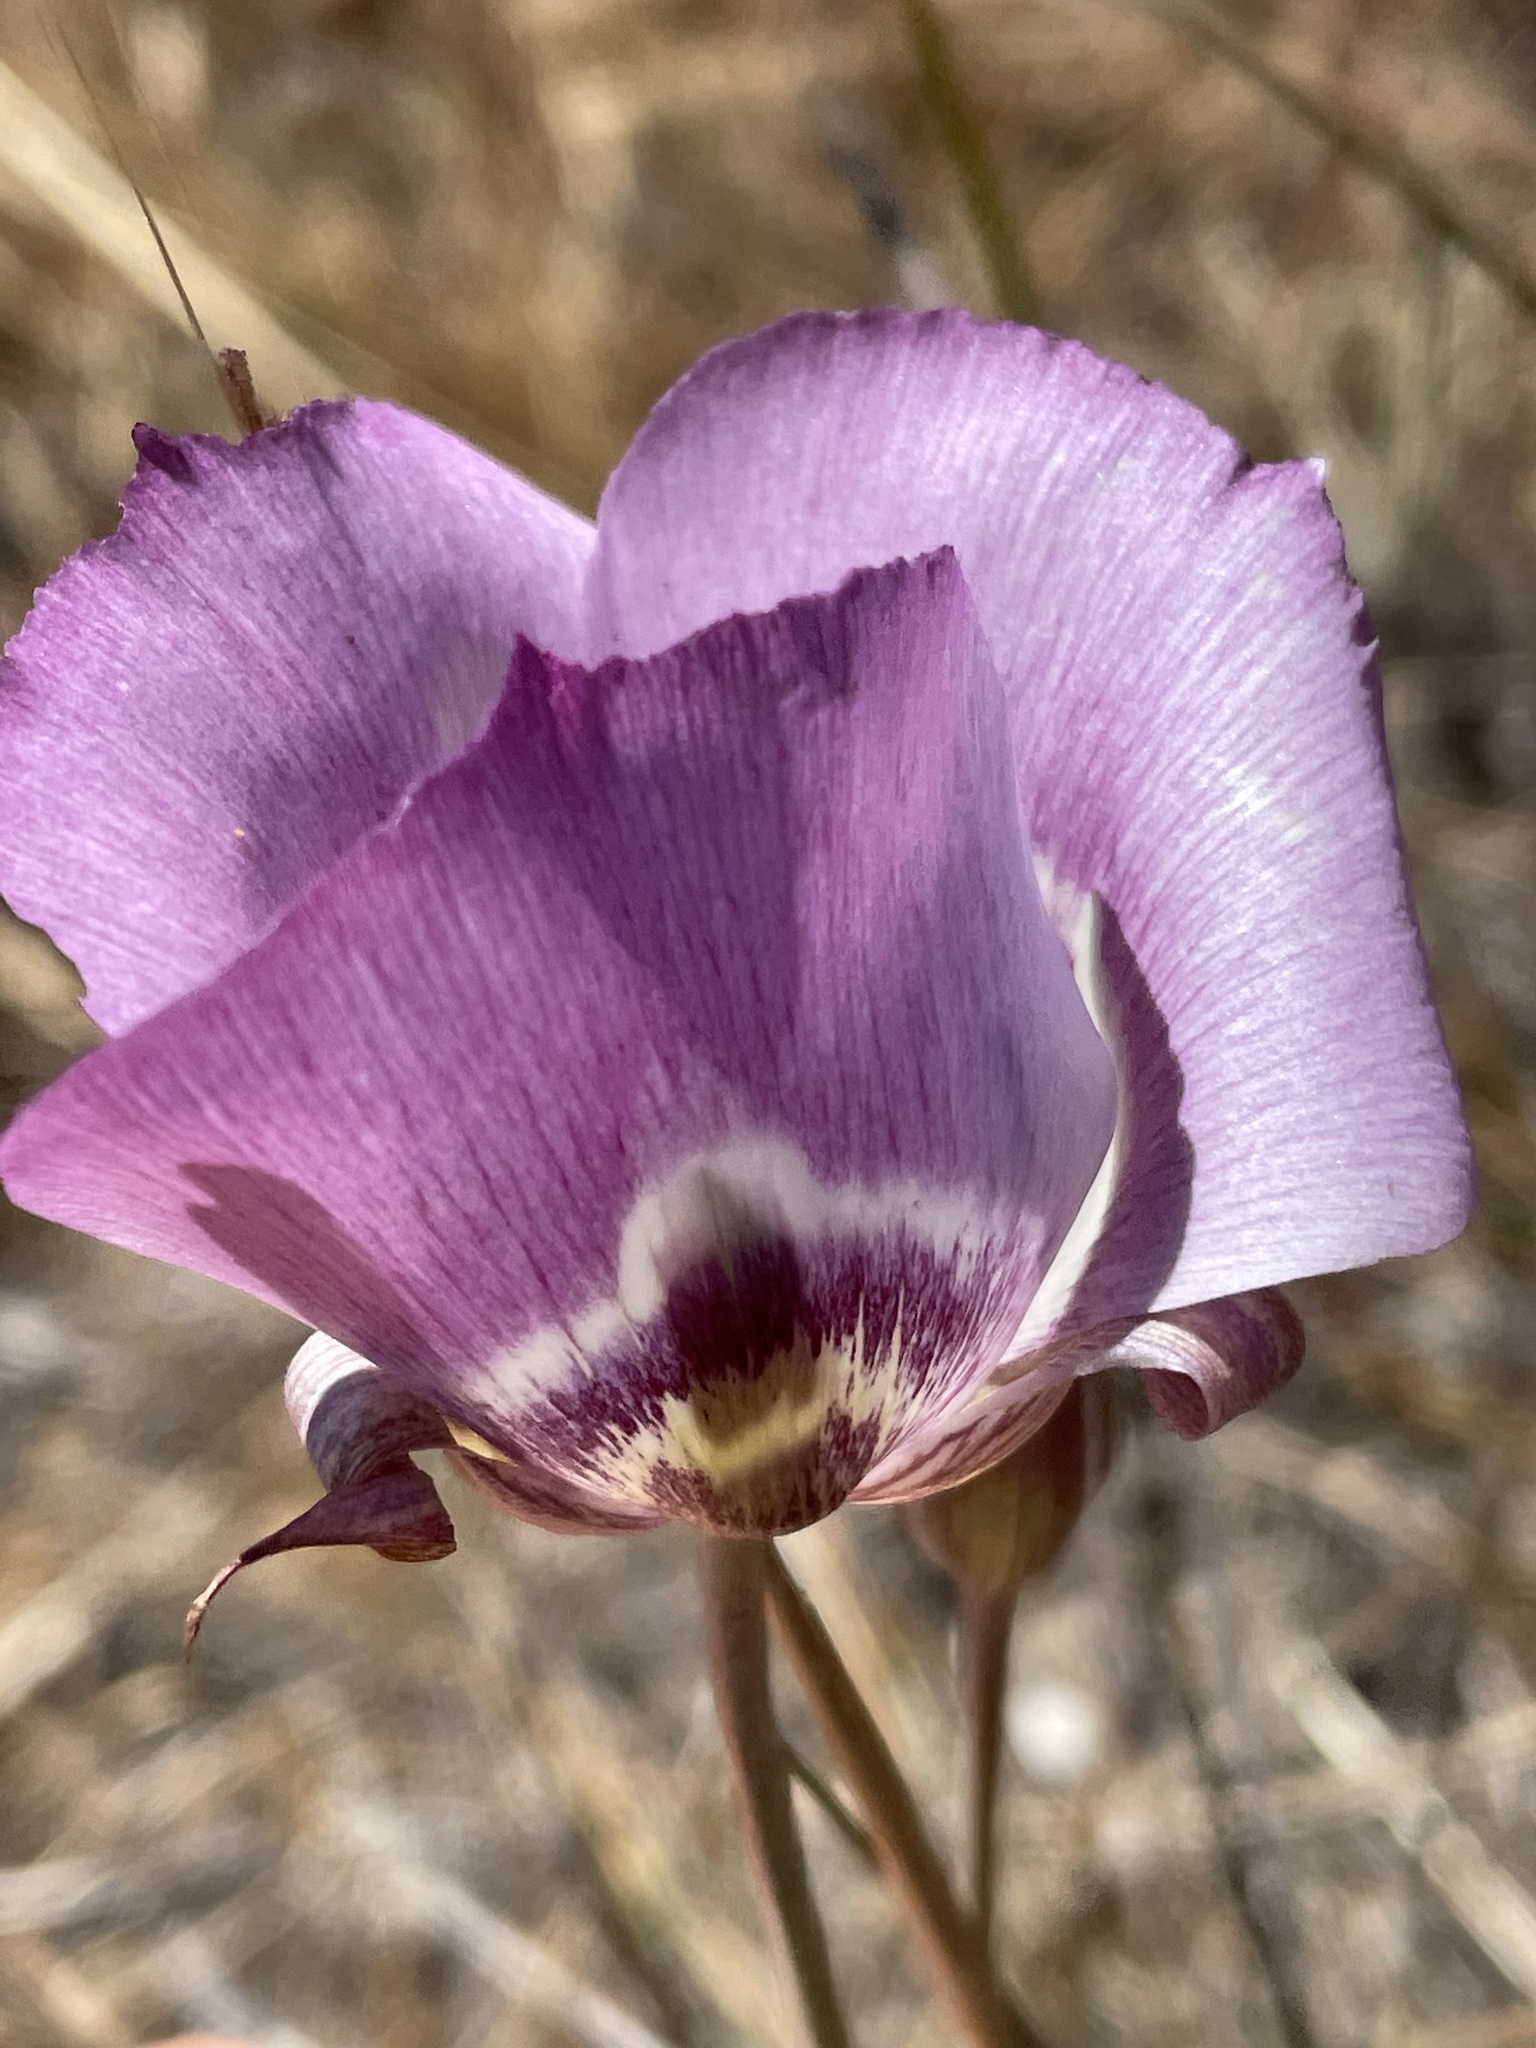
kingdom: Plantae
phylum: Tracheophyta
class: Liliopsida
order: Liliales
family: Liliaceae
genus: Calochortus
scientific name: Calochortus argillosus
